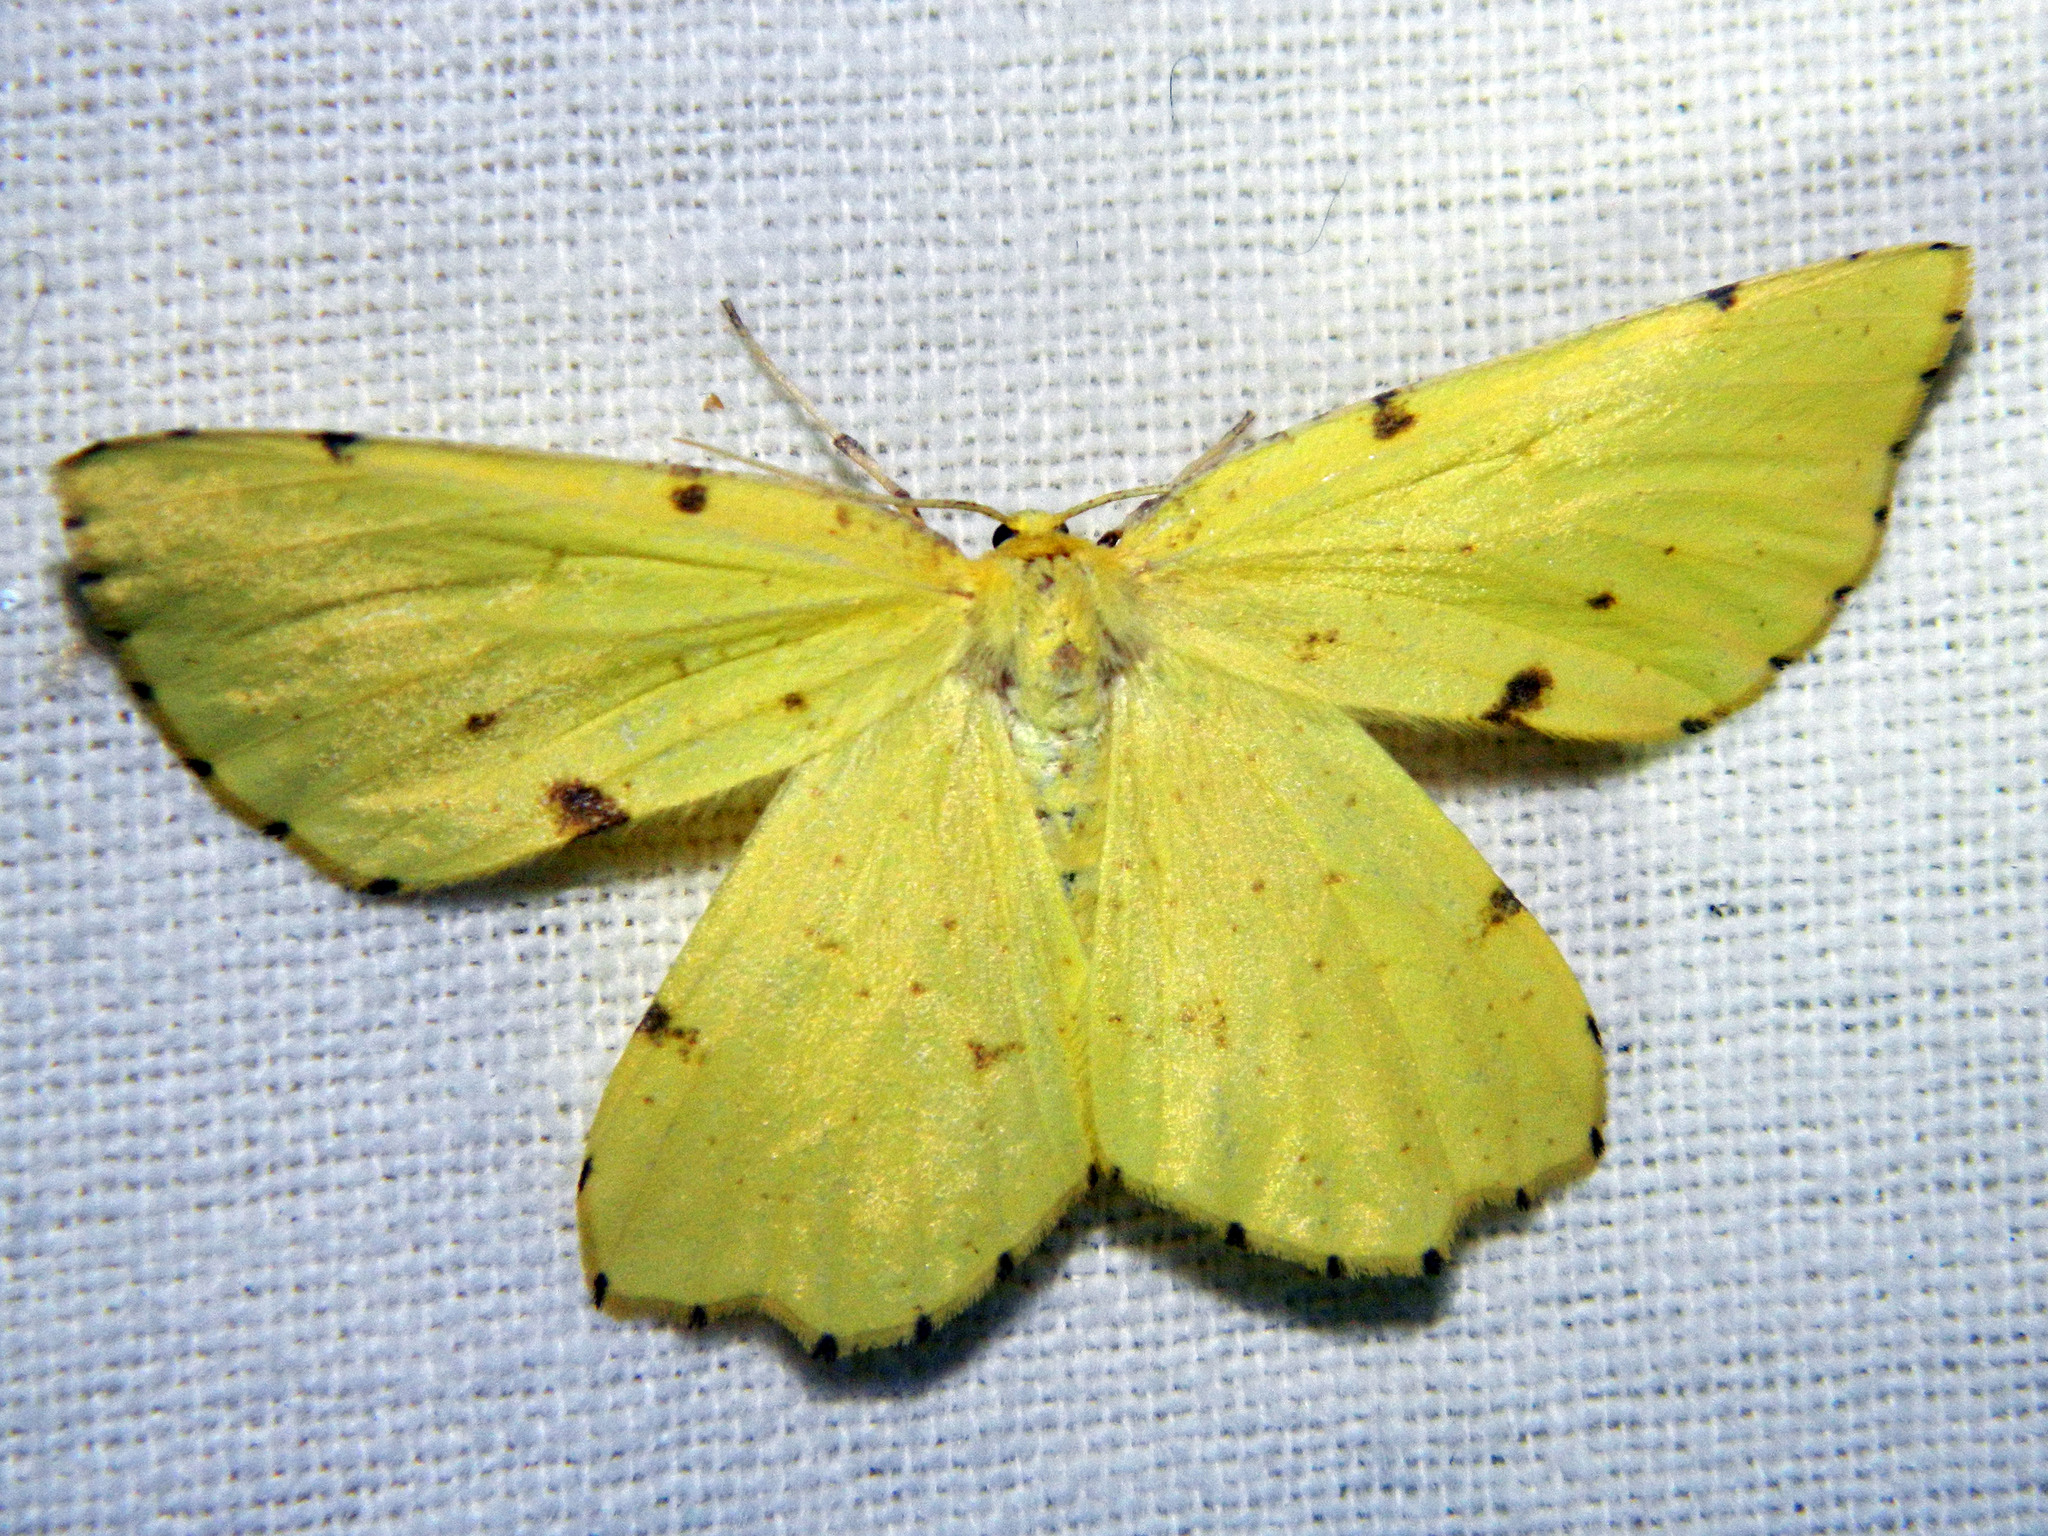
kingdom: Animalia
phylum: Arthropoda
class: Insecta
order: Lepidoptera
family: Geometridae
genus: Xanthotype
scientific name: Xanthotype
